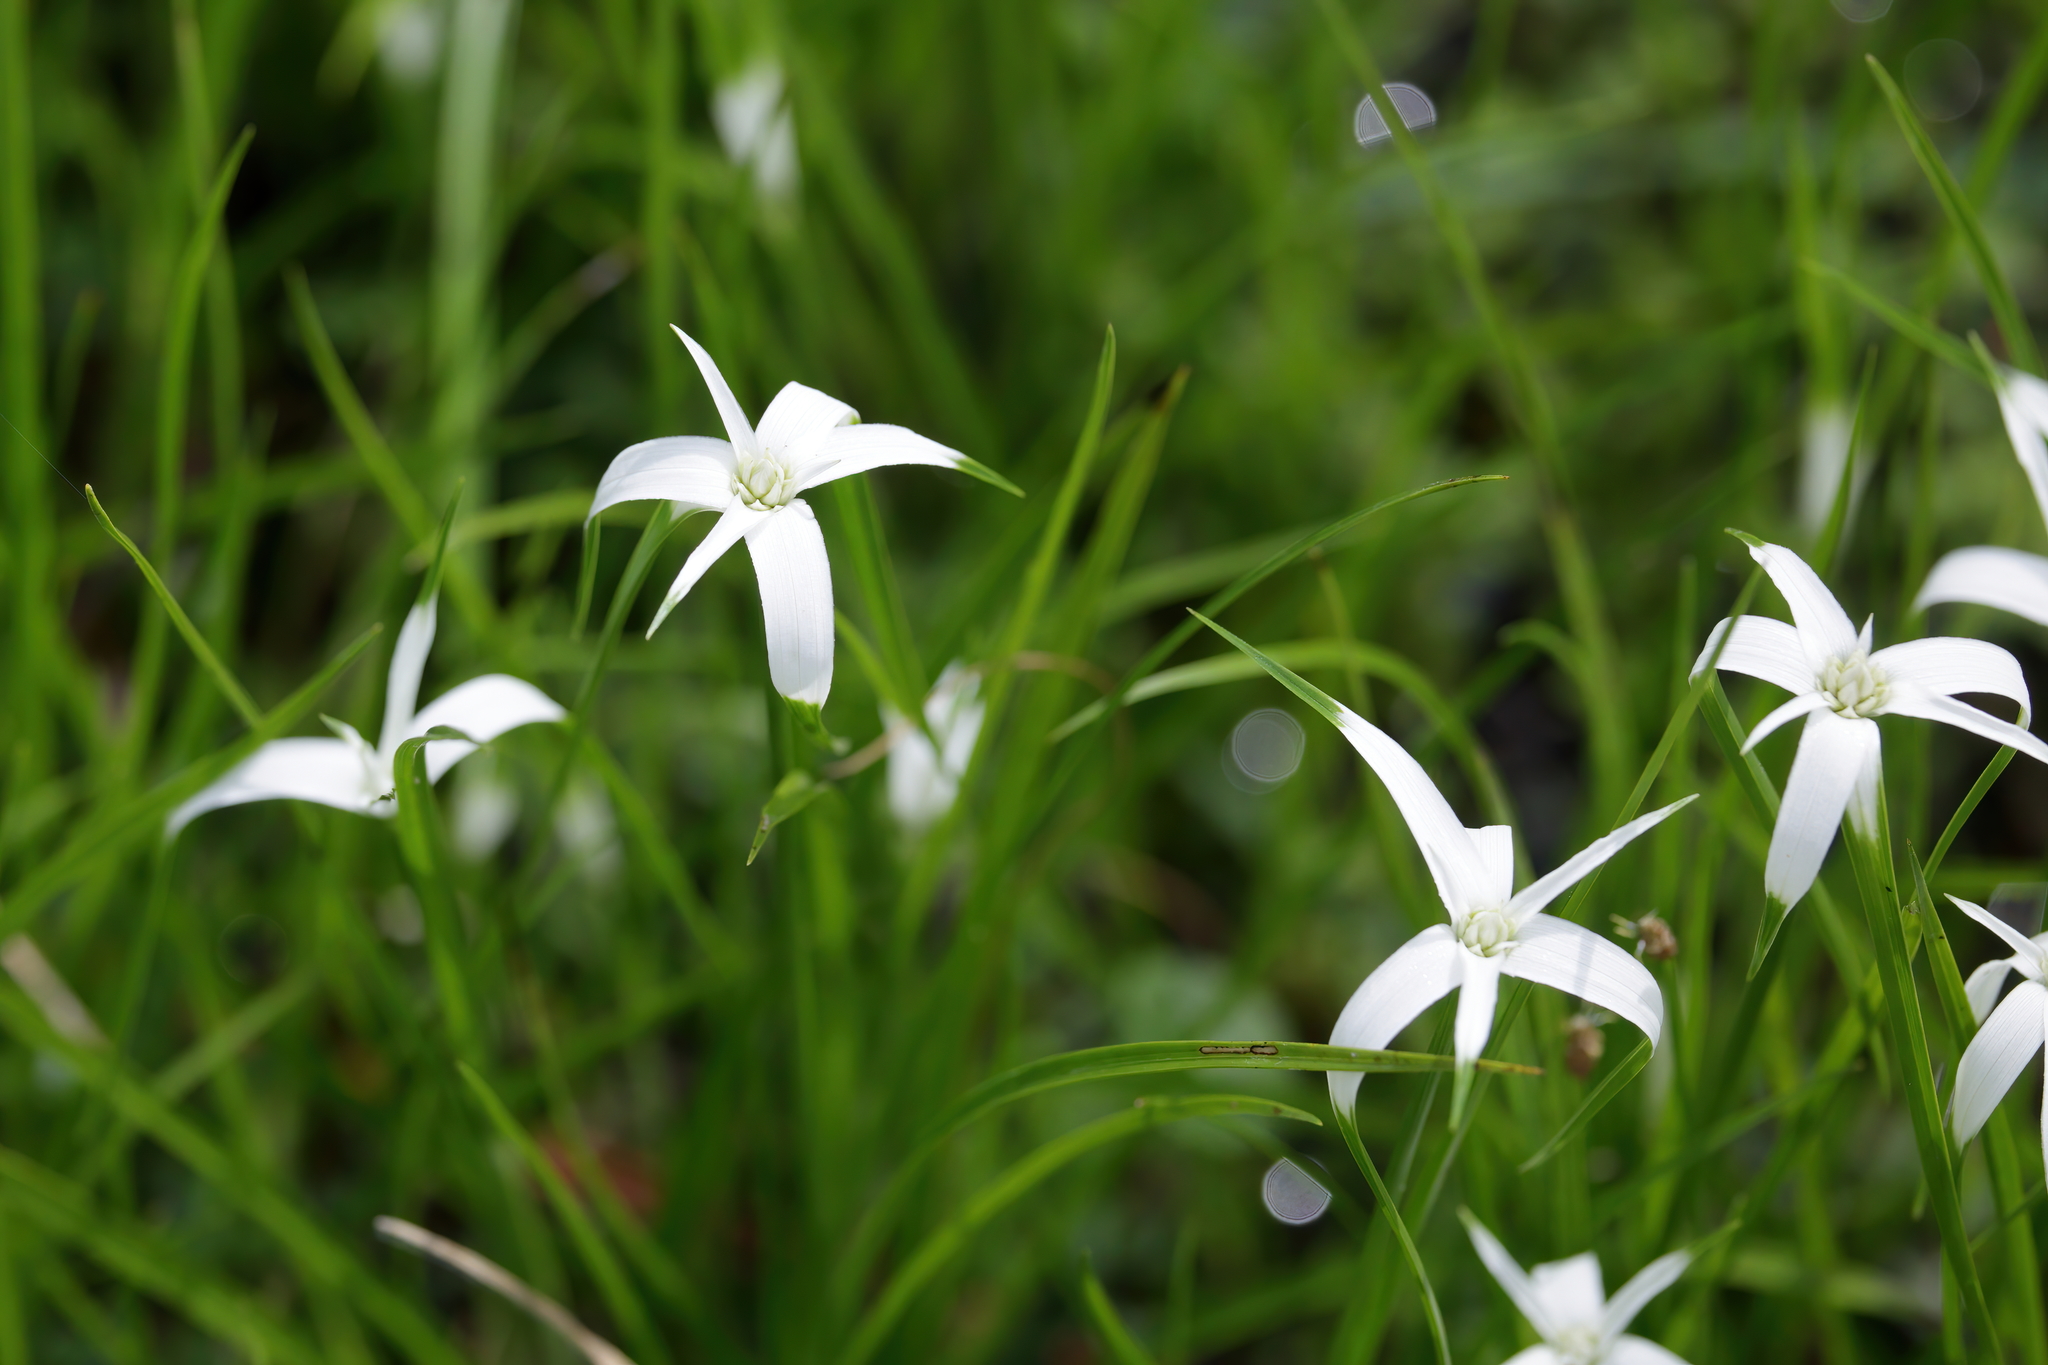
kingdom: Plantae
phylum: Tracheophyta
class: Liliopsida
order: Poales
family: Cyperaceae
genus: Rhynchospora
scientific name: Rhynchospora colorata
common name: Star sedge
